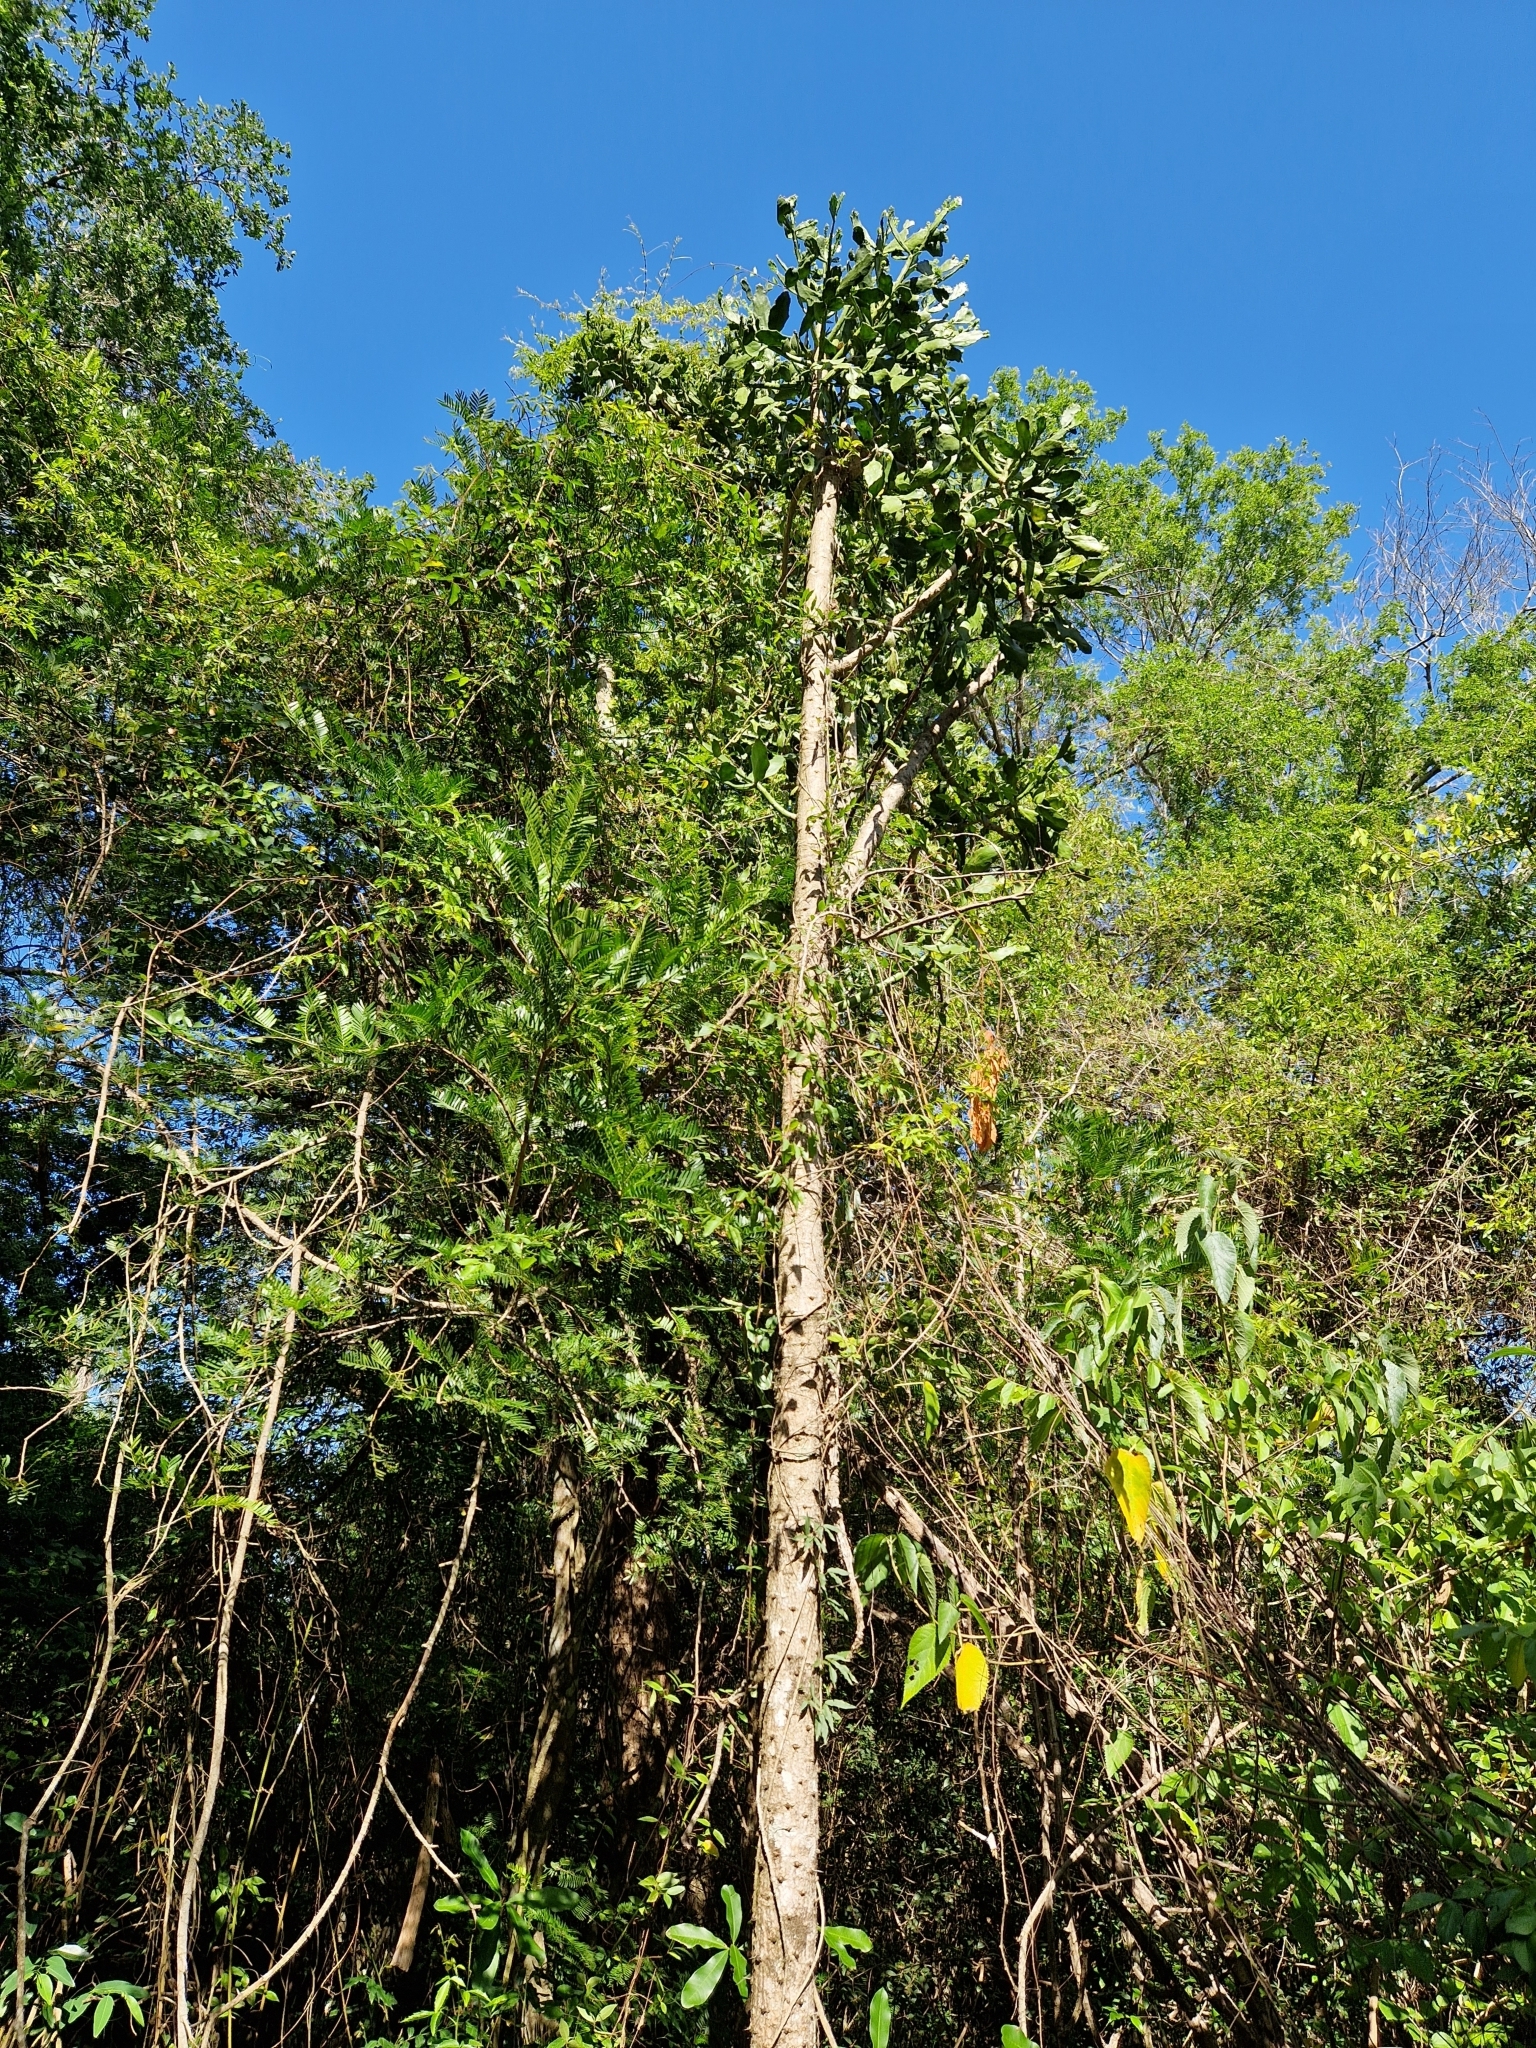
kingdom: Plantae
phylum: Tracheophyta
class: Magnoliopsida
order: Caryophyllales
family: Cactaceae
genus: Brasiliopuntia
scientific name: Brasiliopuntia brasiliensis
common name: Brazilian pricklypear
